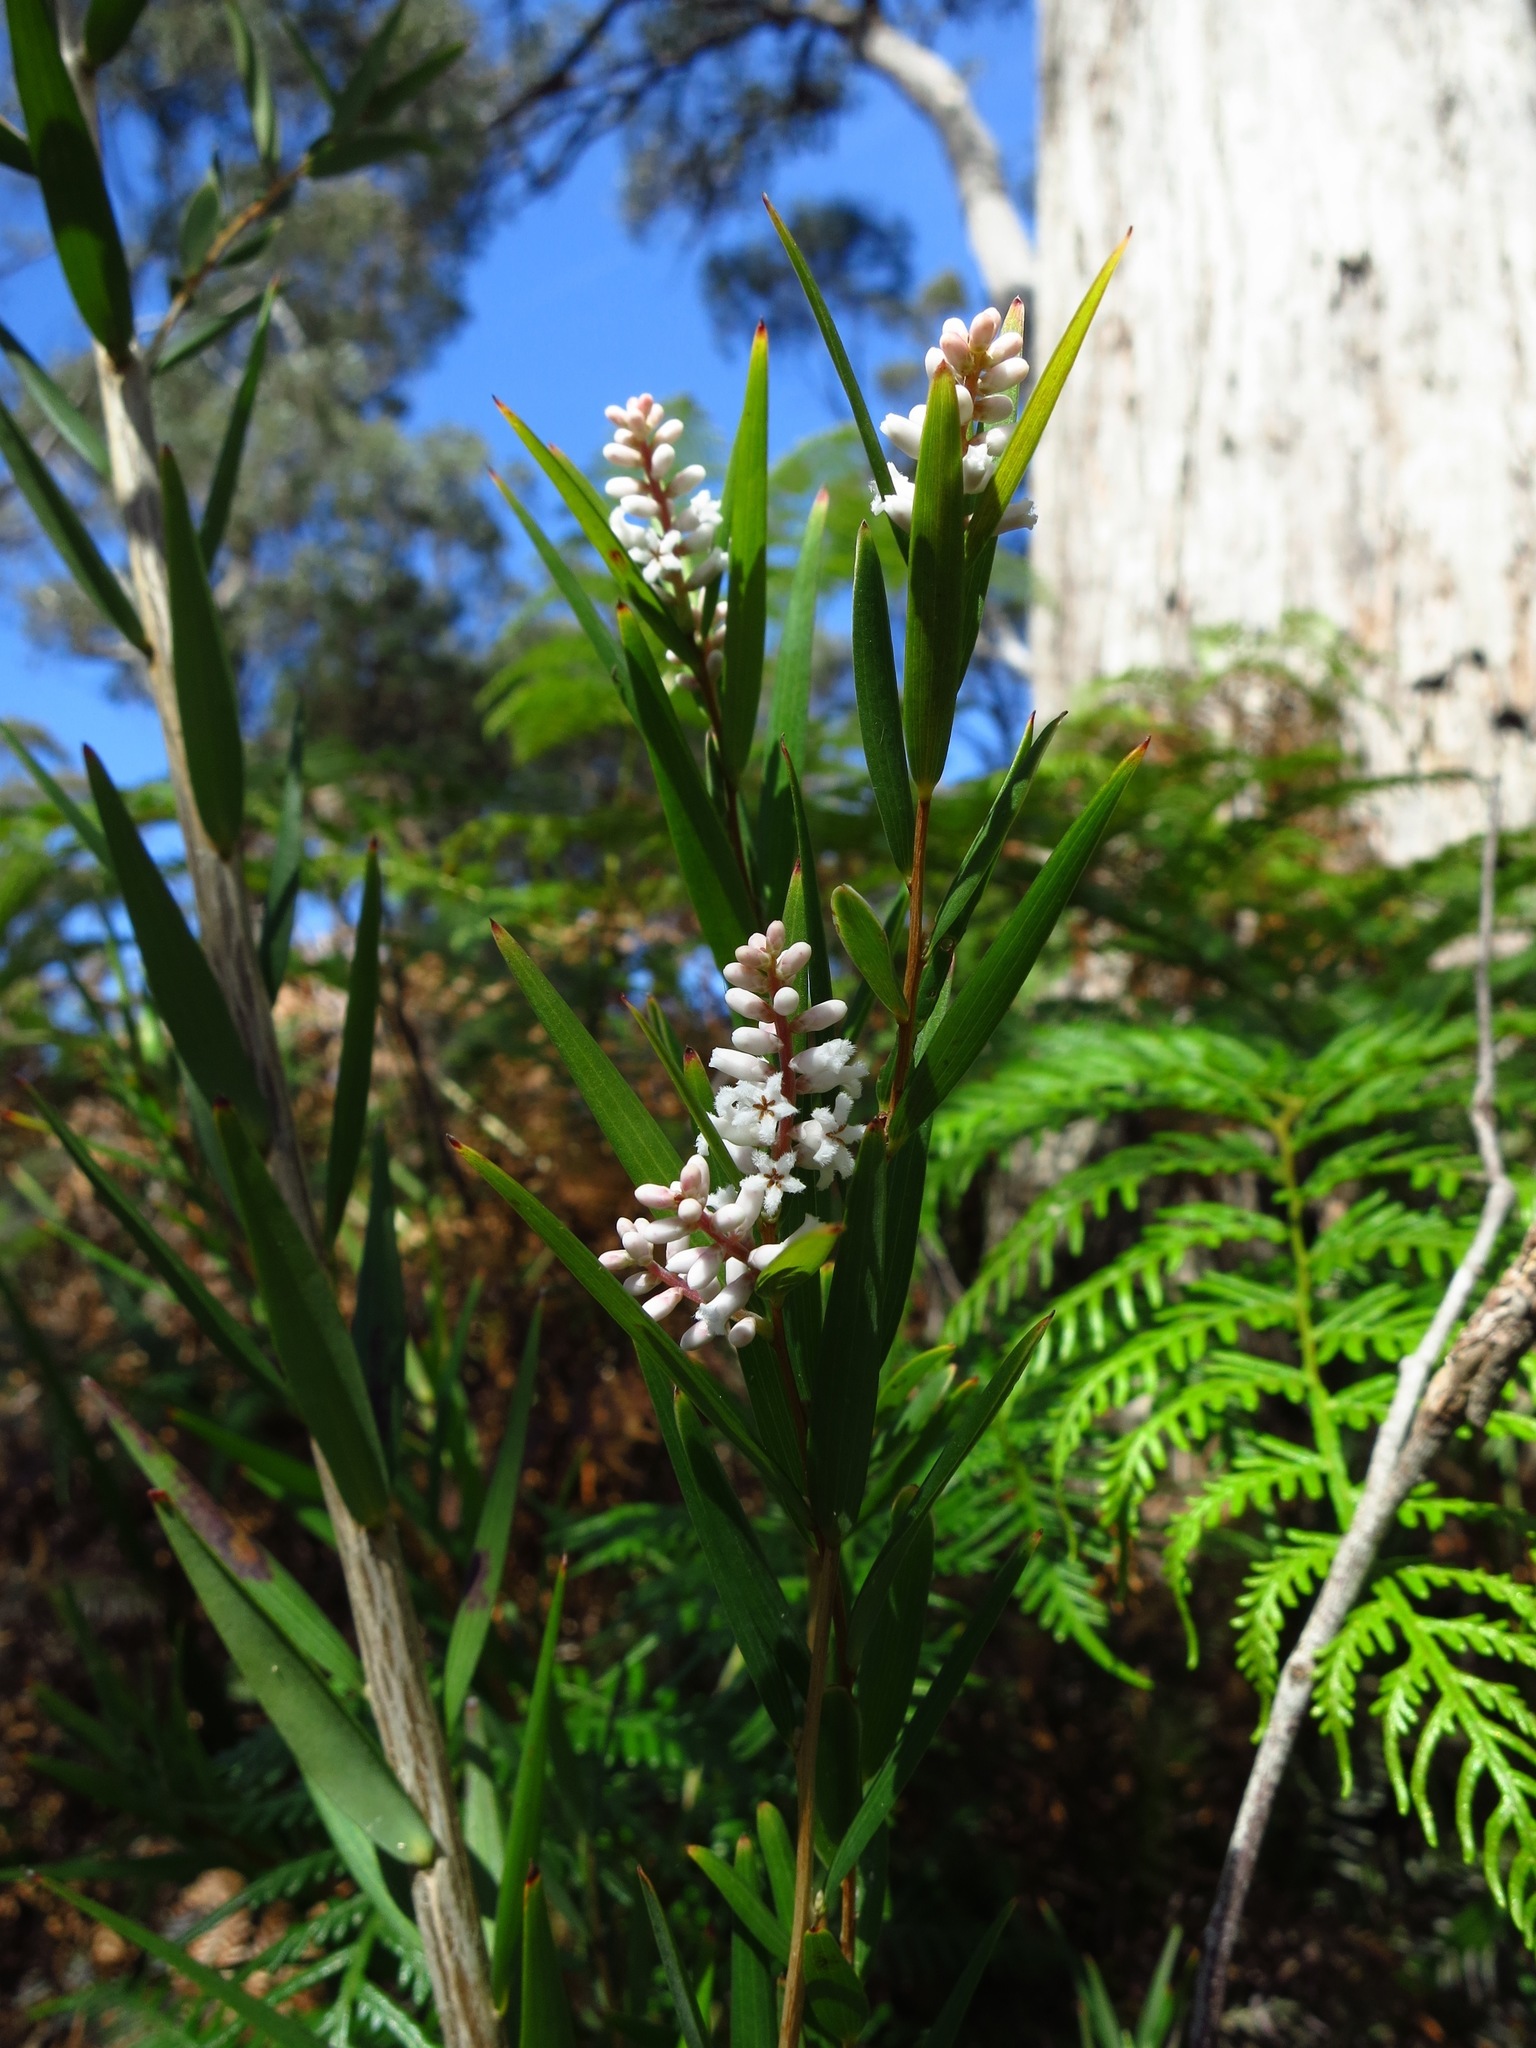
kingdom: Plantae
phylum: Tracheophyta
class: Magnoliopsida
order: Ericales
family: Ericaceae
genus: Leucopogon
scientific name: Leucopogon australis
